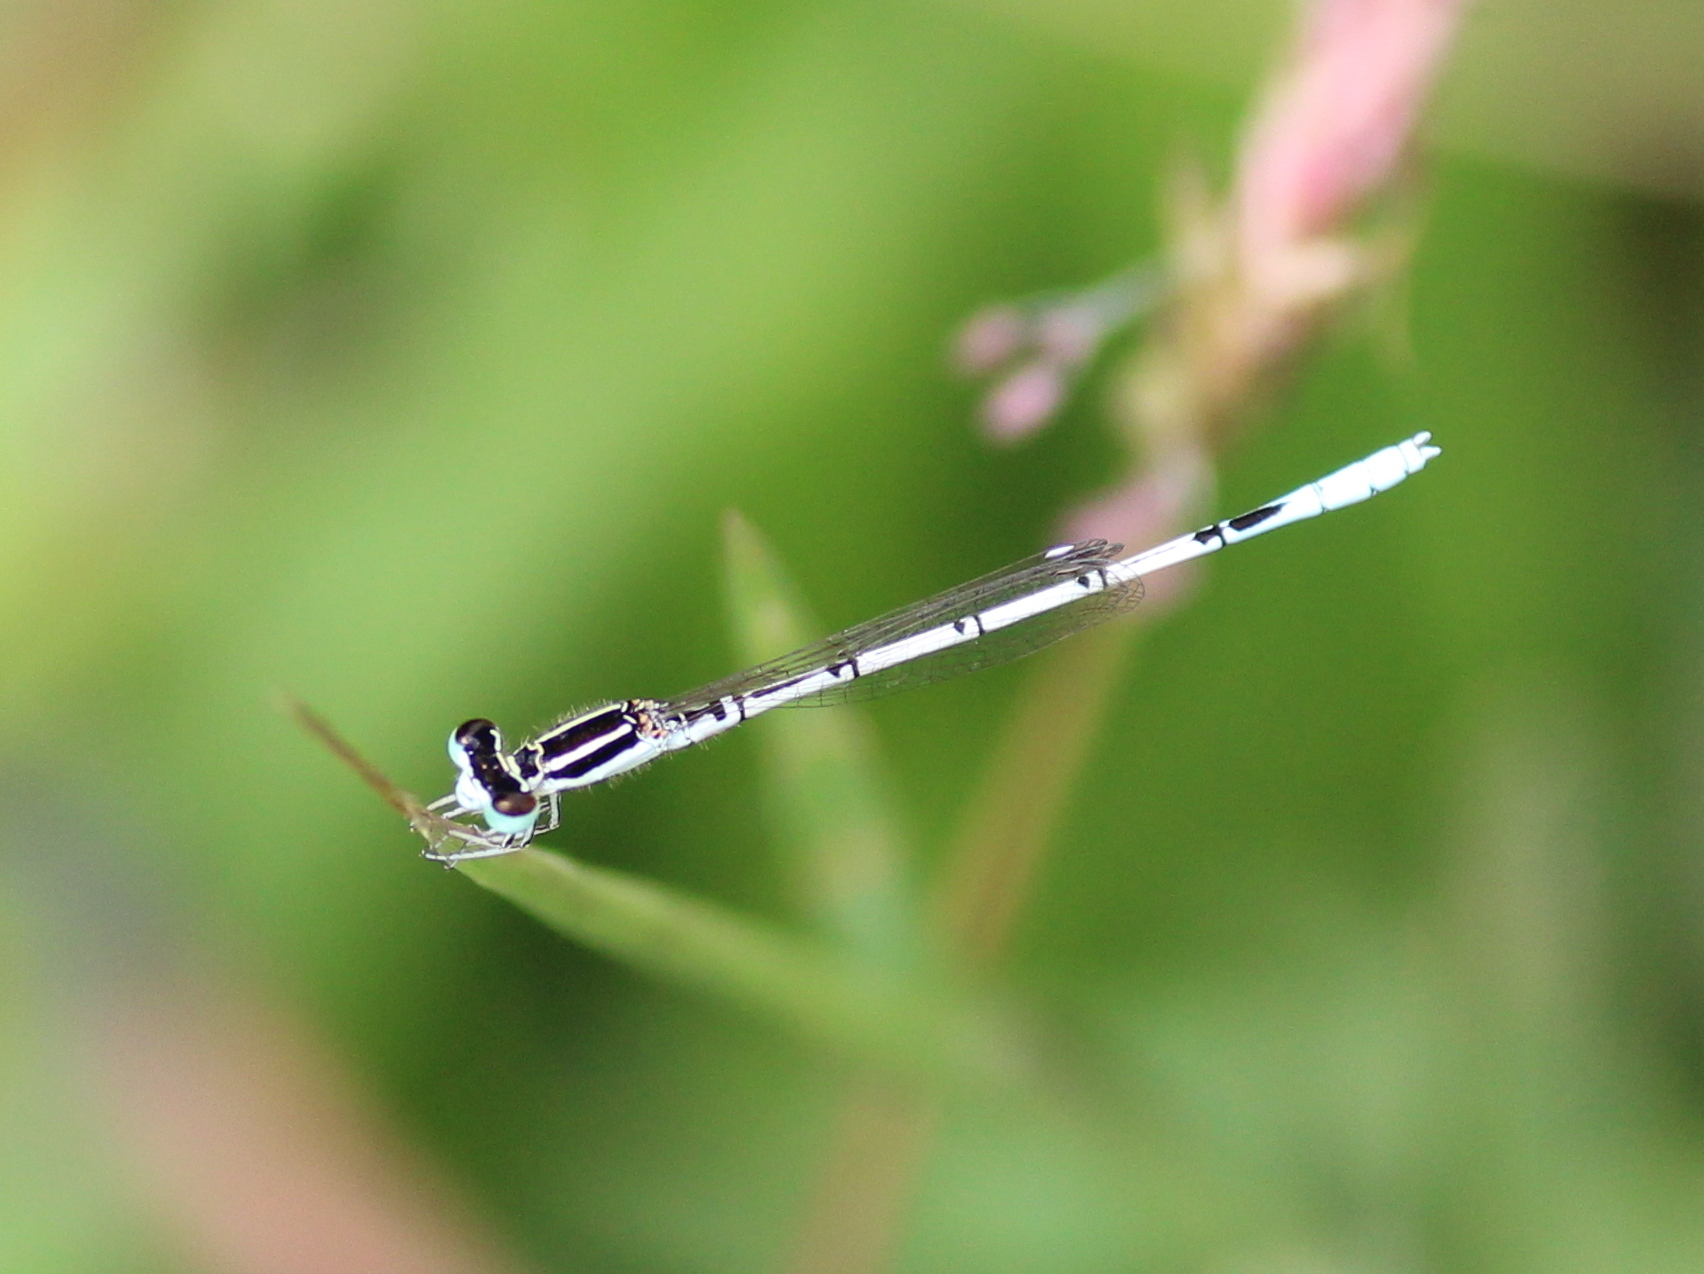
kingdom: Animalia
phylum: Arthropoda
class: Insecta
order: Odonata
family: Coenagrionidae
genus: Agriocnemis
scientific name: Agriocnemis pieris
